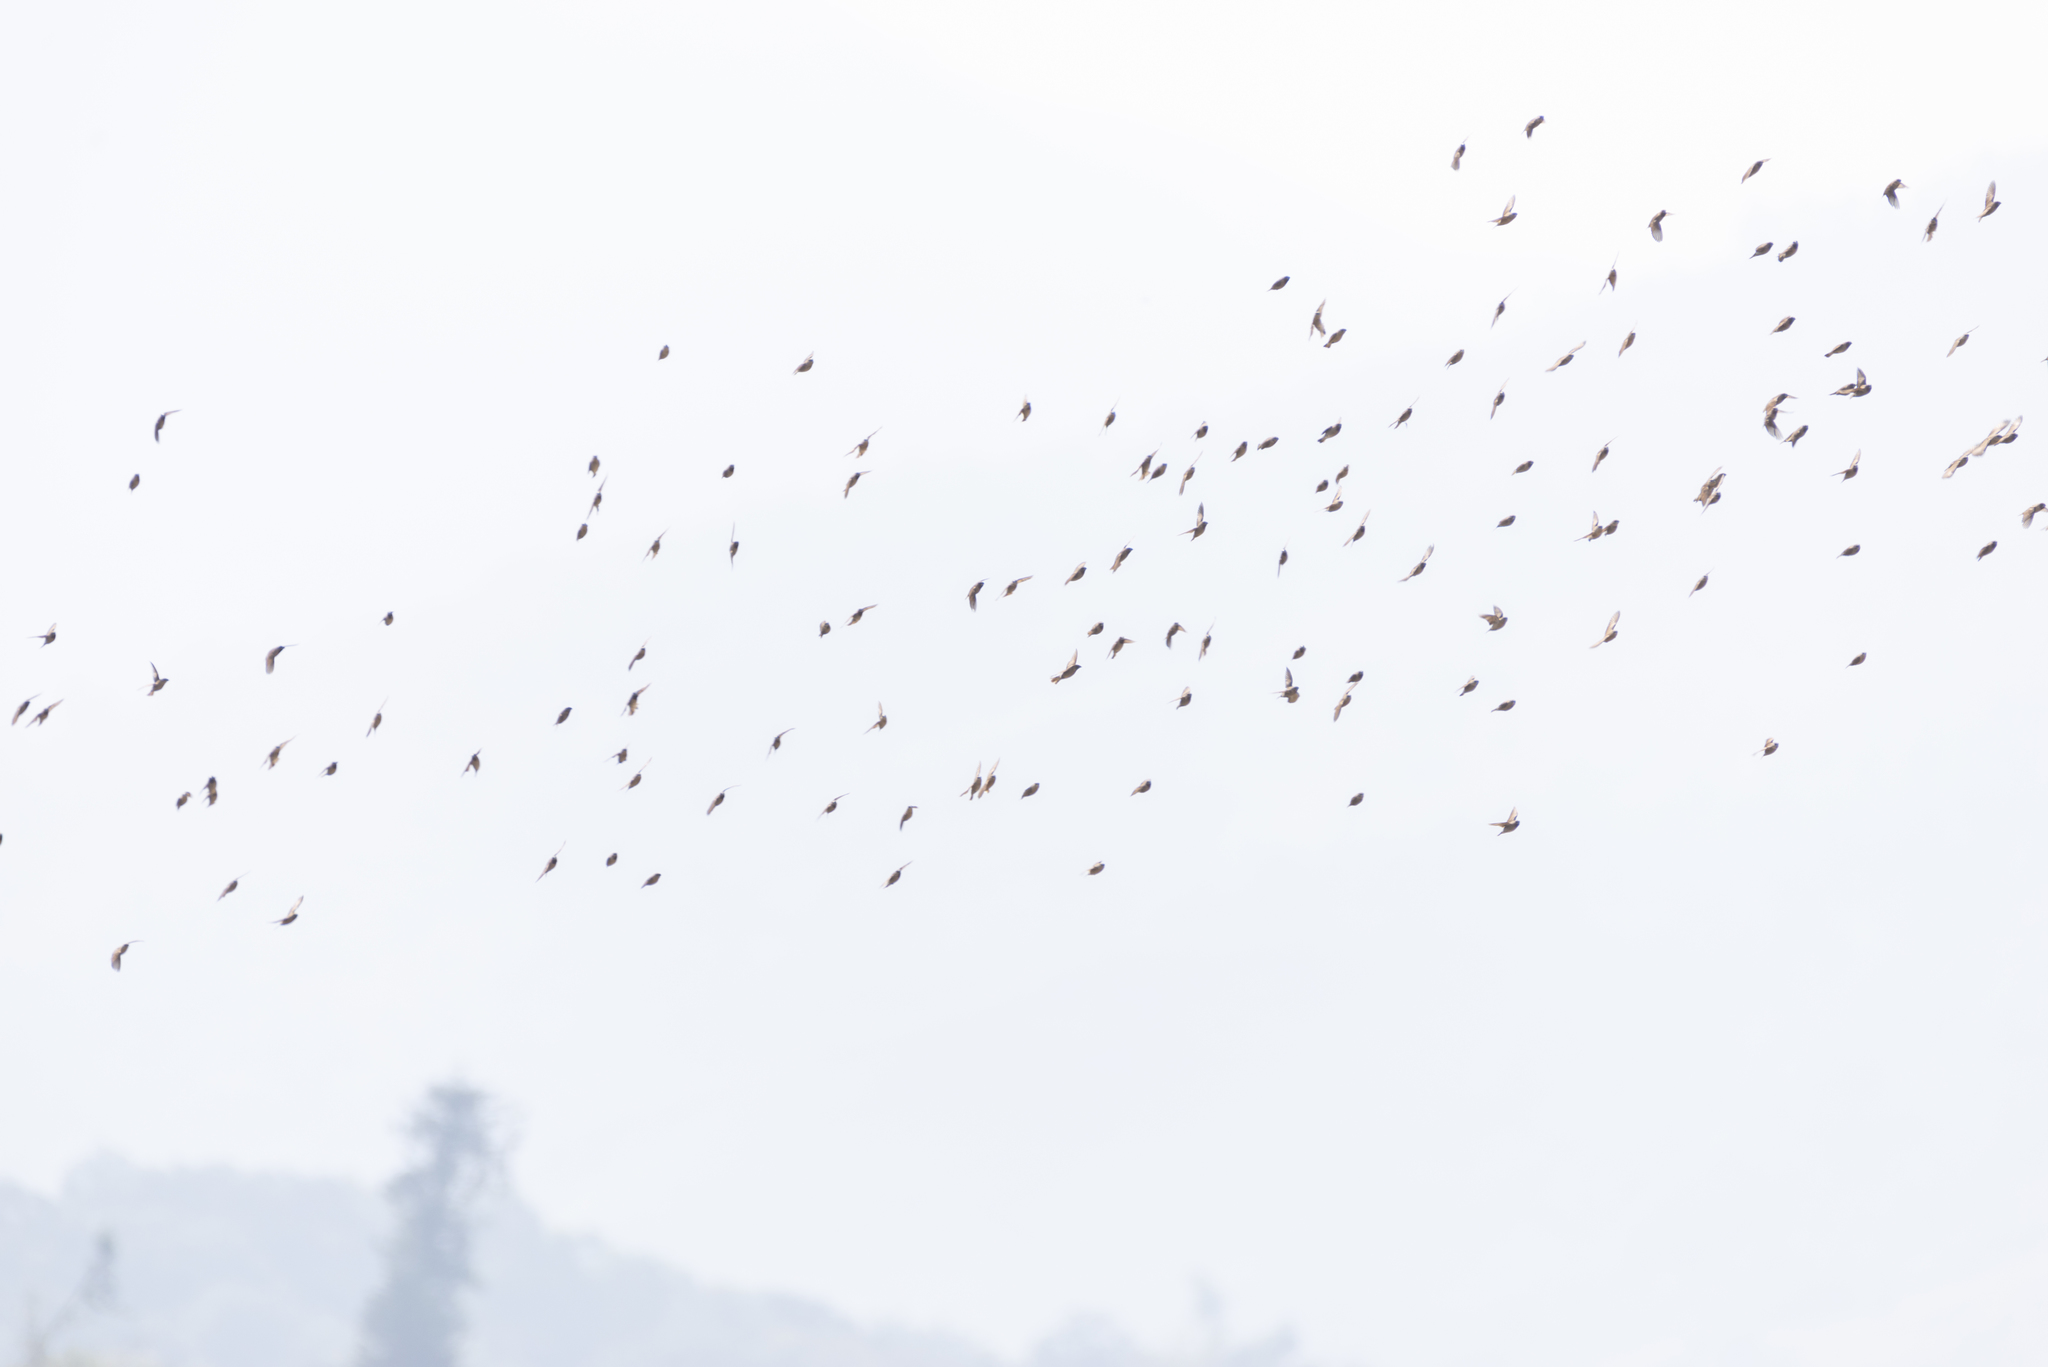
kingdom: Animalia
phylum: Chordata
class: Aves
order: Passeriformes
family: Estrildidae
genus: Lonchura
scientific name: Lonchura striata
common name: White-rumped munia
